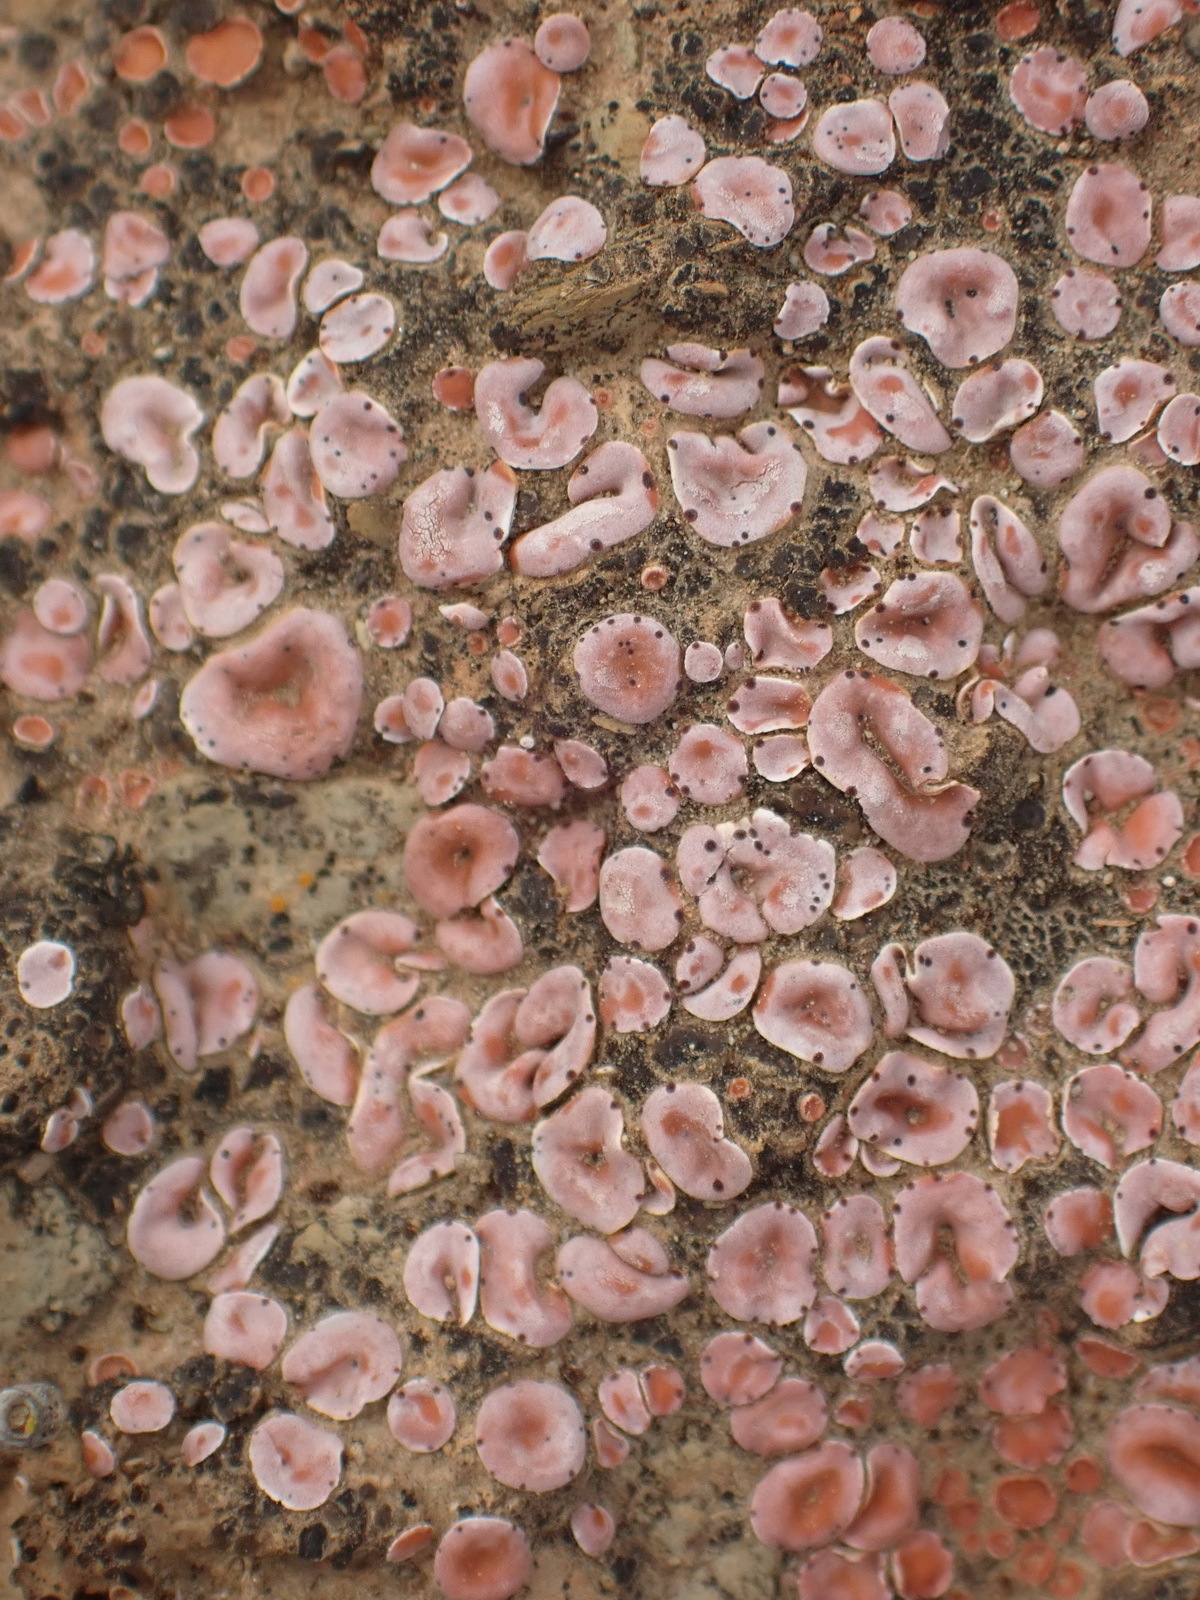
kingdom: Fungi
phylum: Ascomycota
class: Lecanoromycetes
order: Lecanorales
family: Psoraceae
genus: Psora
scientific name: Psora crenata
